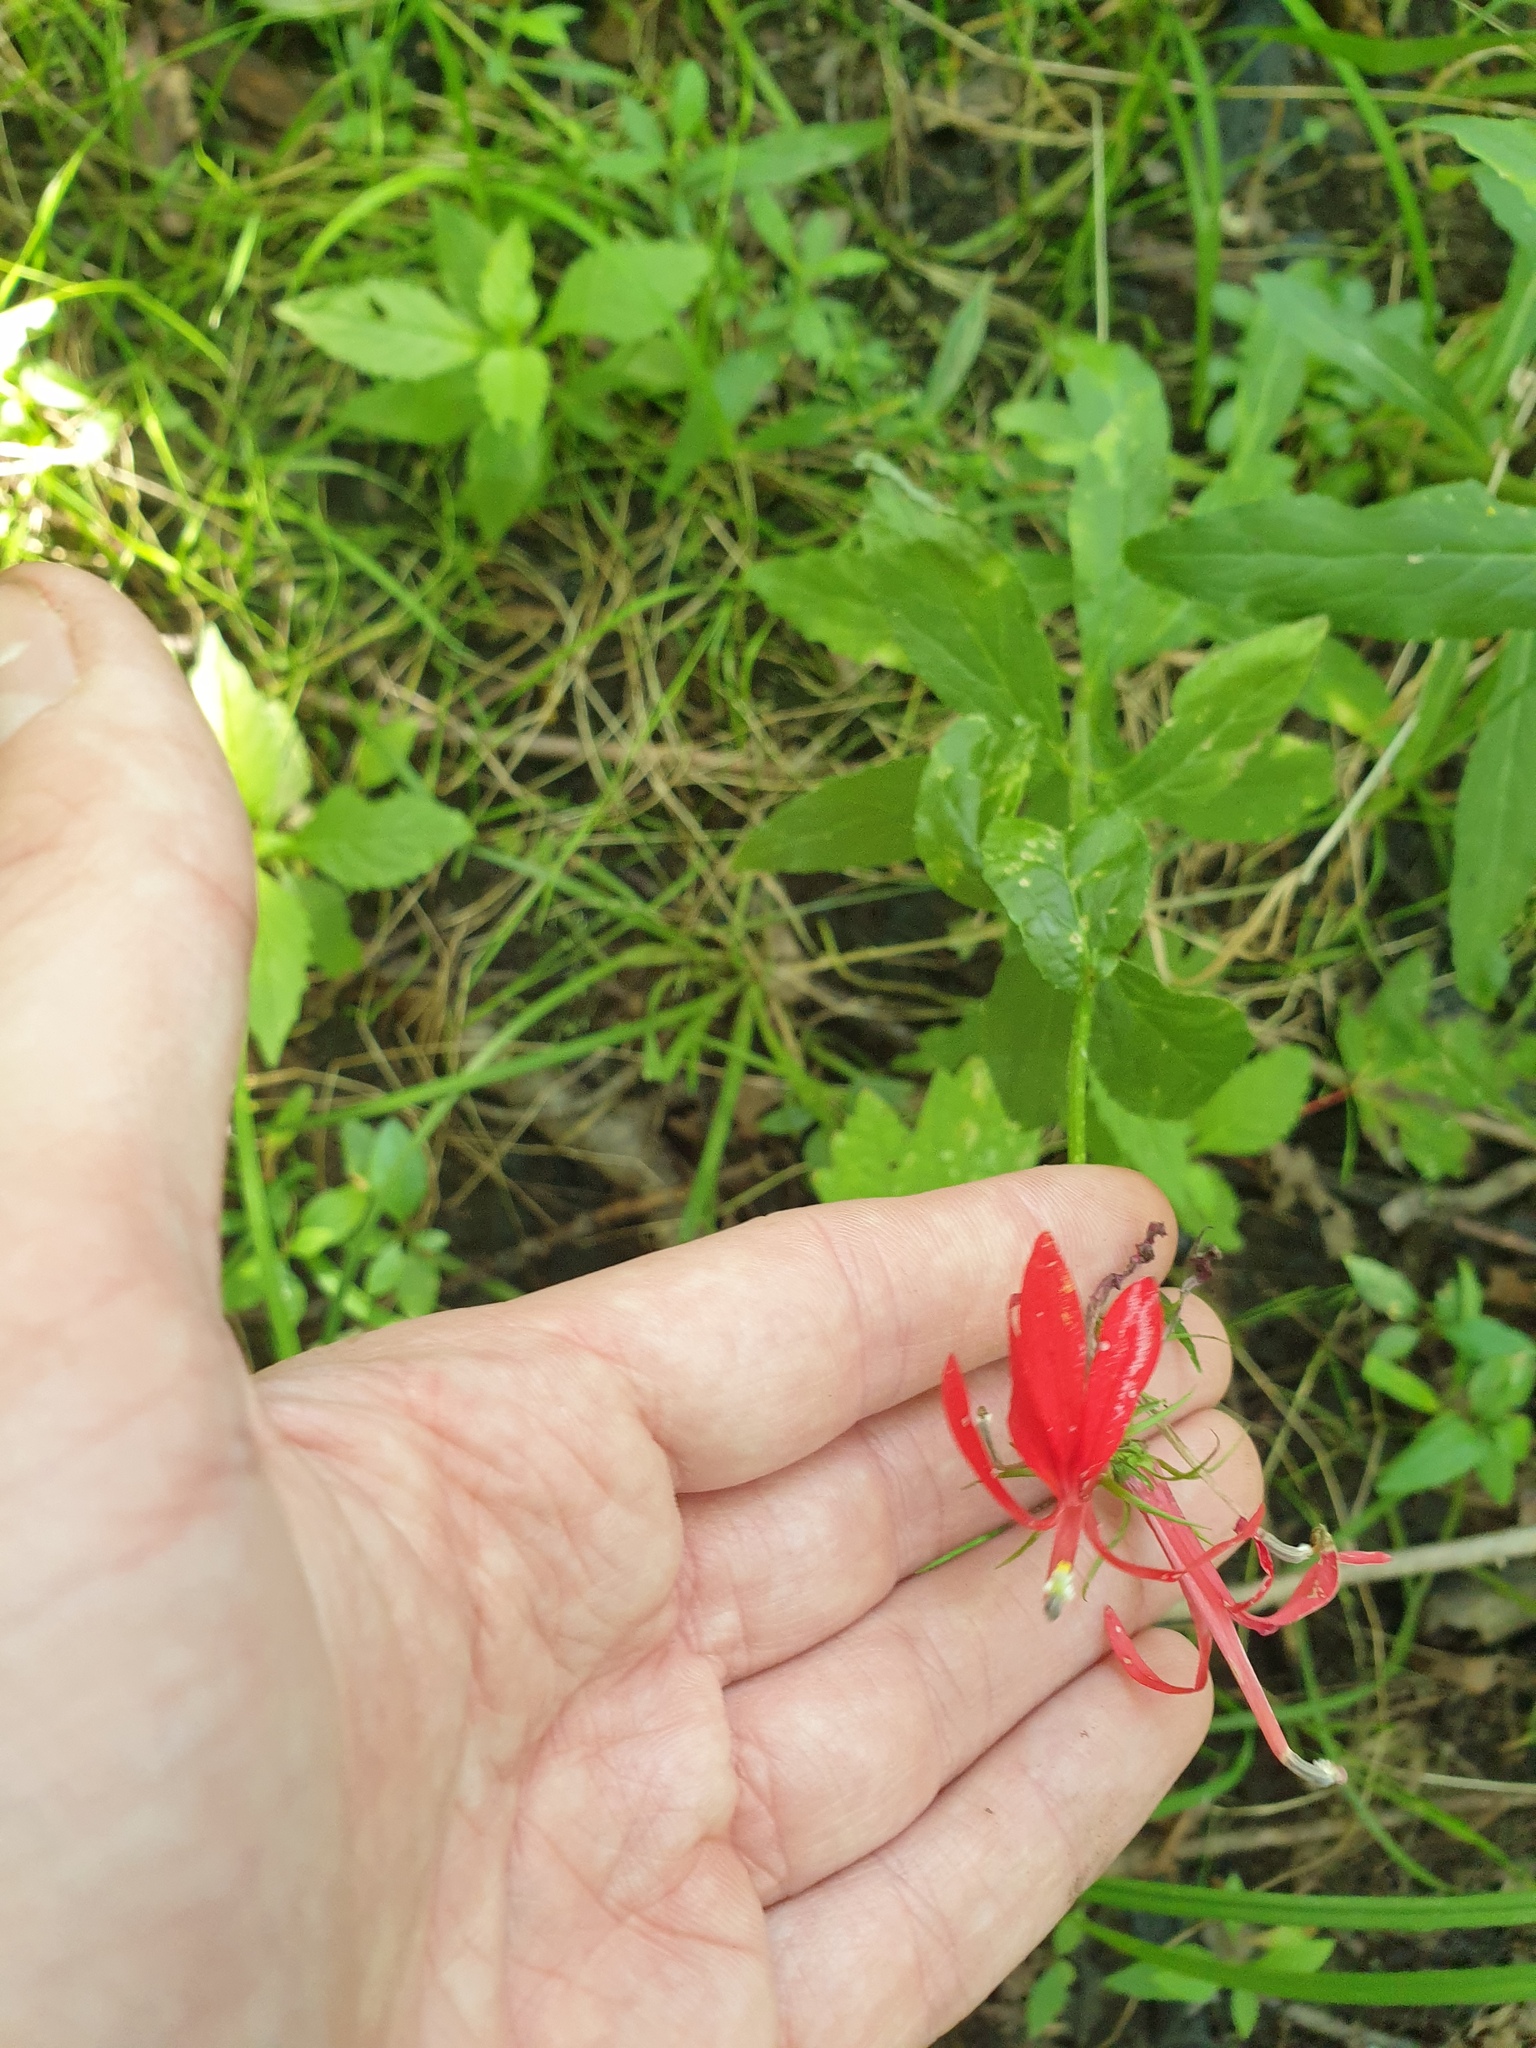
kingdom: Plantae
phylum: Tracheophyta
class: Magnoliopsida
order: Asterales
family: Campanulaceae
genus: Lobelia
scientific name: Lobelia cardinalis
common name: Cardinal flower
